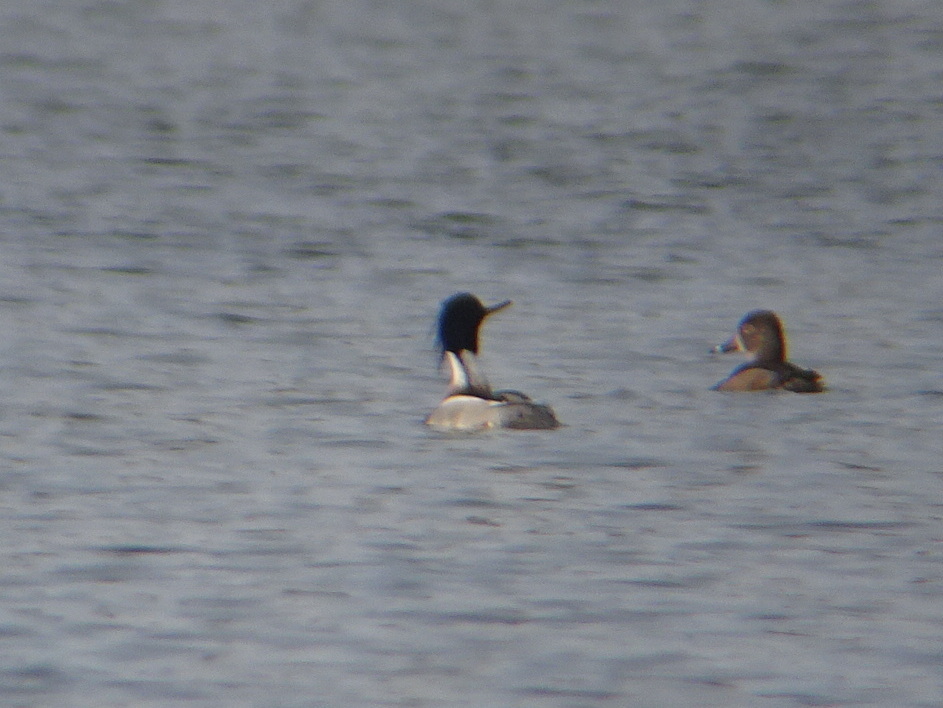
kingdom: Animalia
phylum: Chordata
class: Aves
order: Anseriformes
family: Anatidae
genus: Mergus
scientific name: Mergus serrator
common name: Red-breasted merganser
